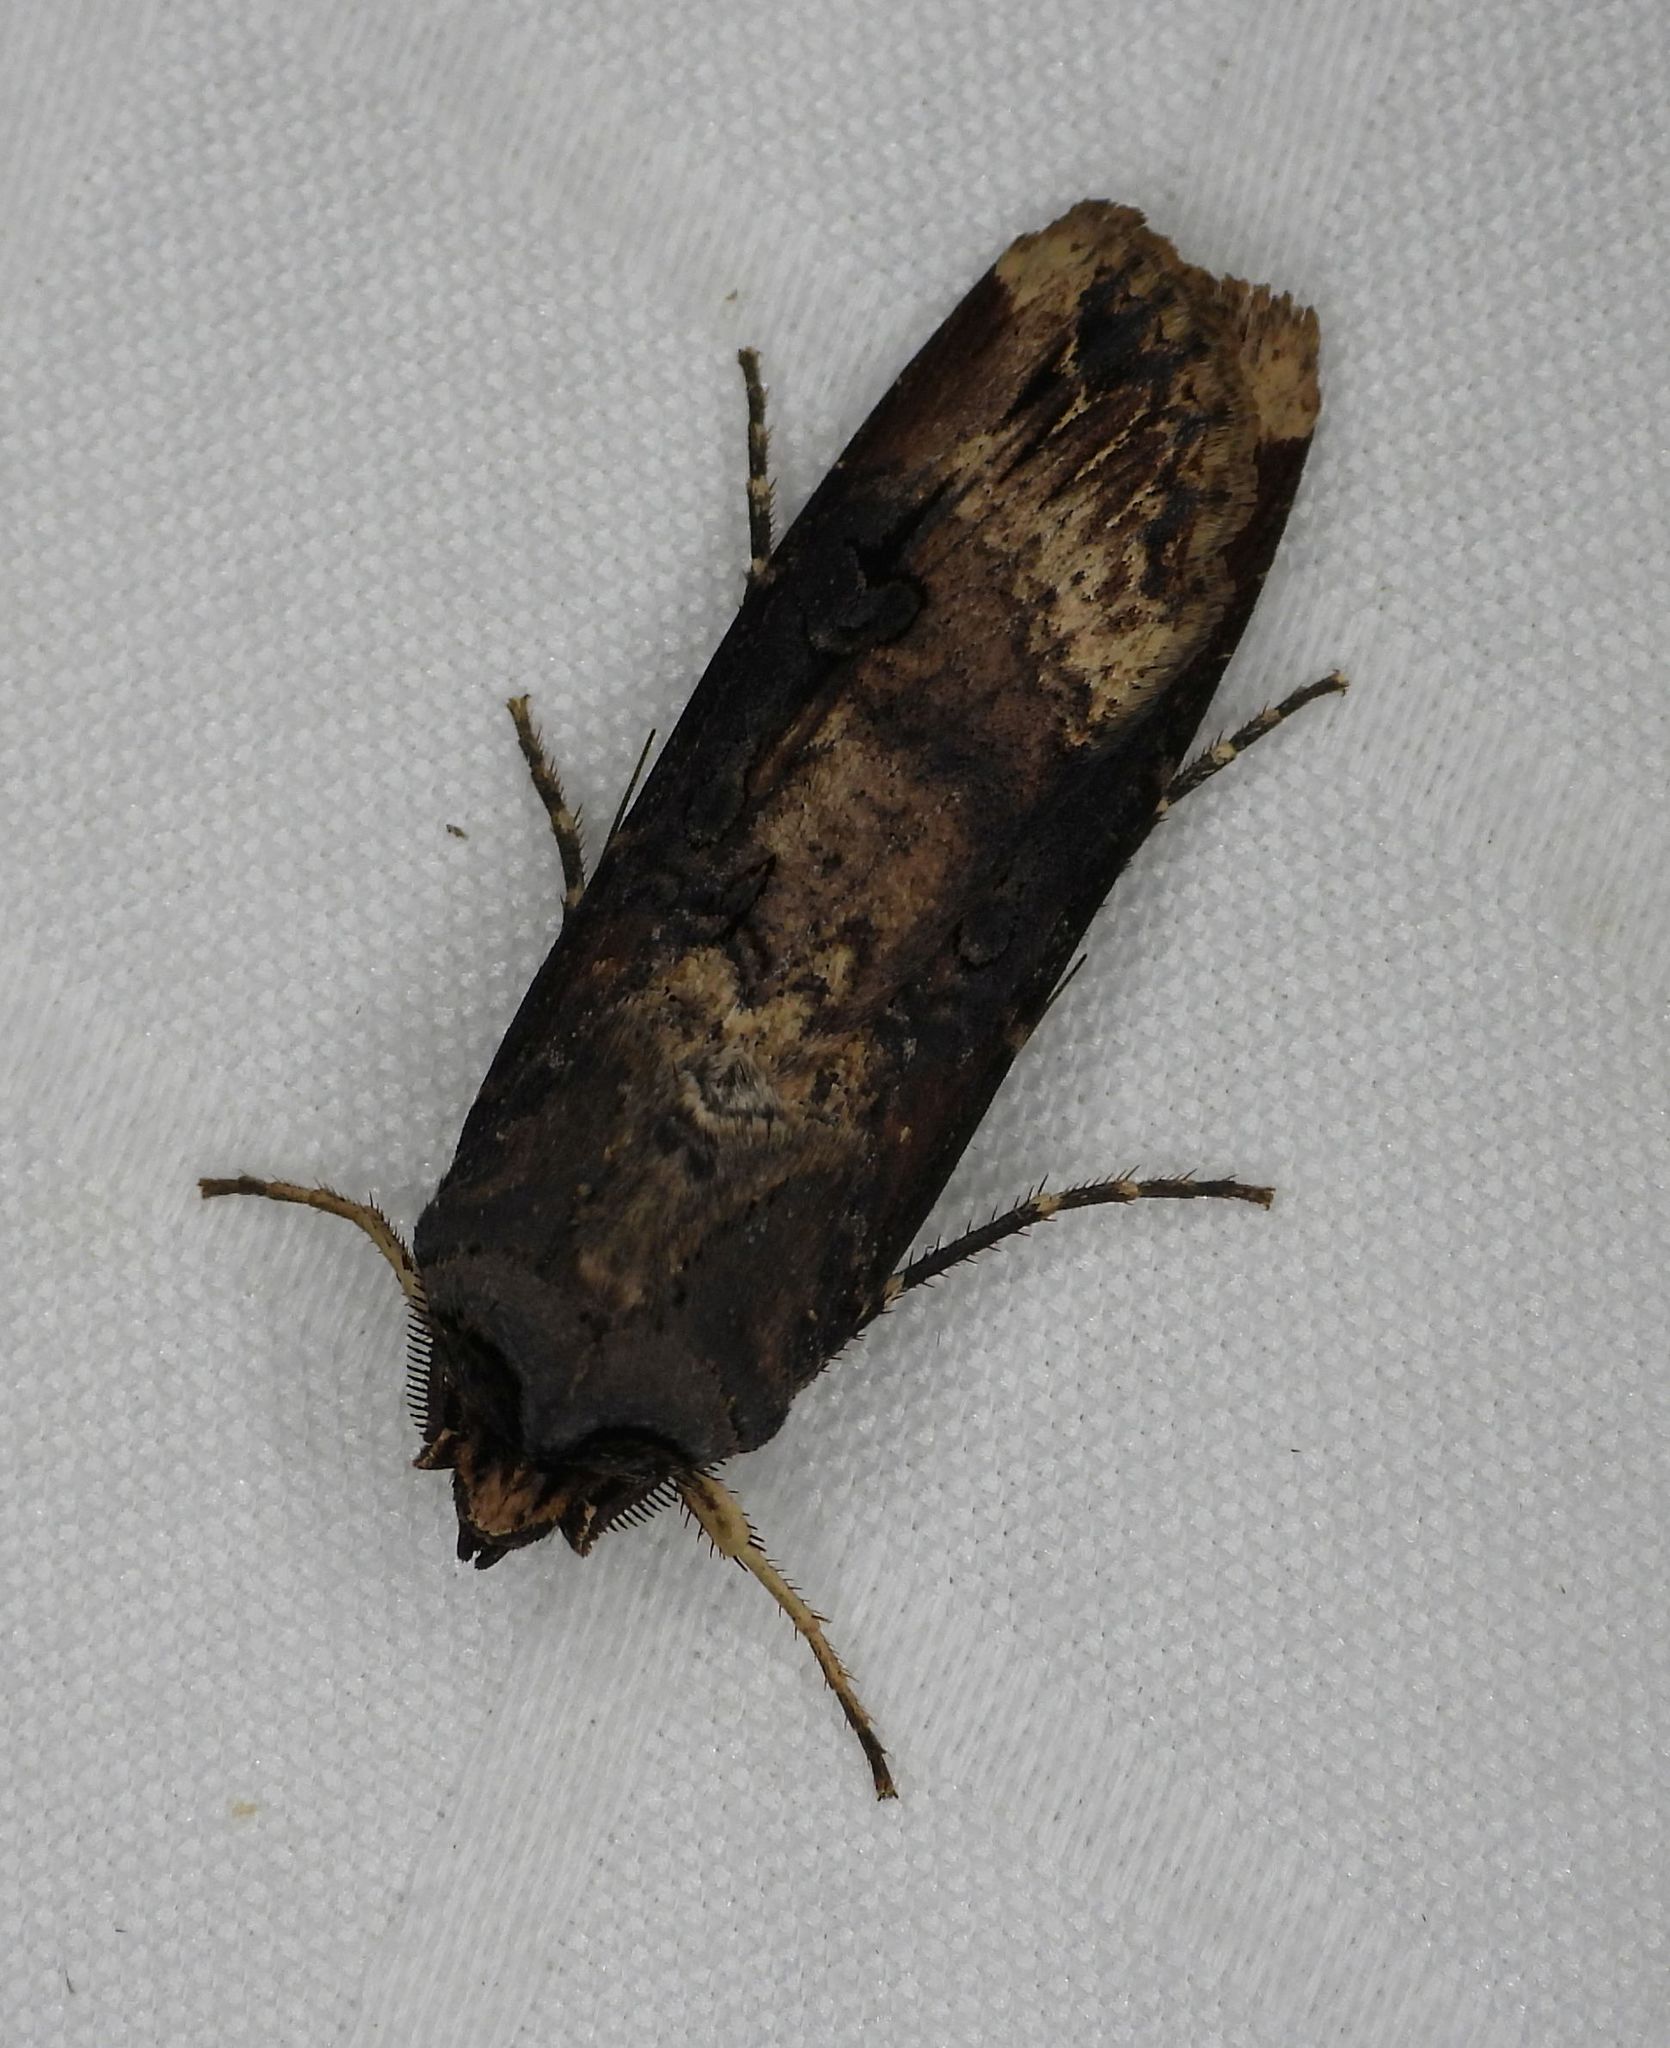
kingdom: Animalia
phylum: Arthropoda
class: Insecta
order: Lepidoptera
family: Noctuidae
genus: Agrotis
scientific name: Agrotis ipsilon
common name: Dark sword-grass
